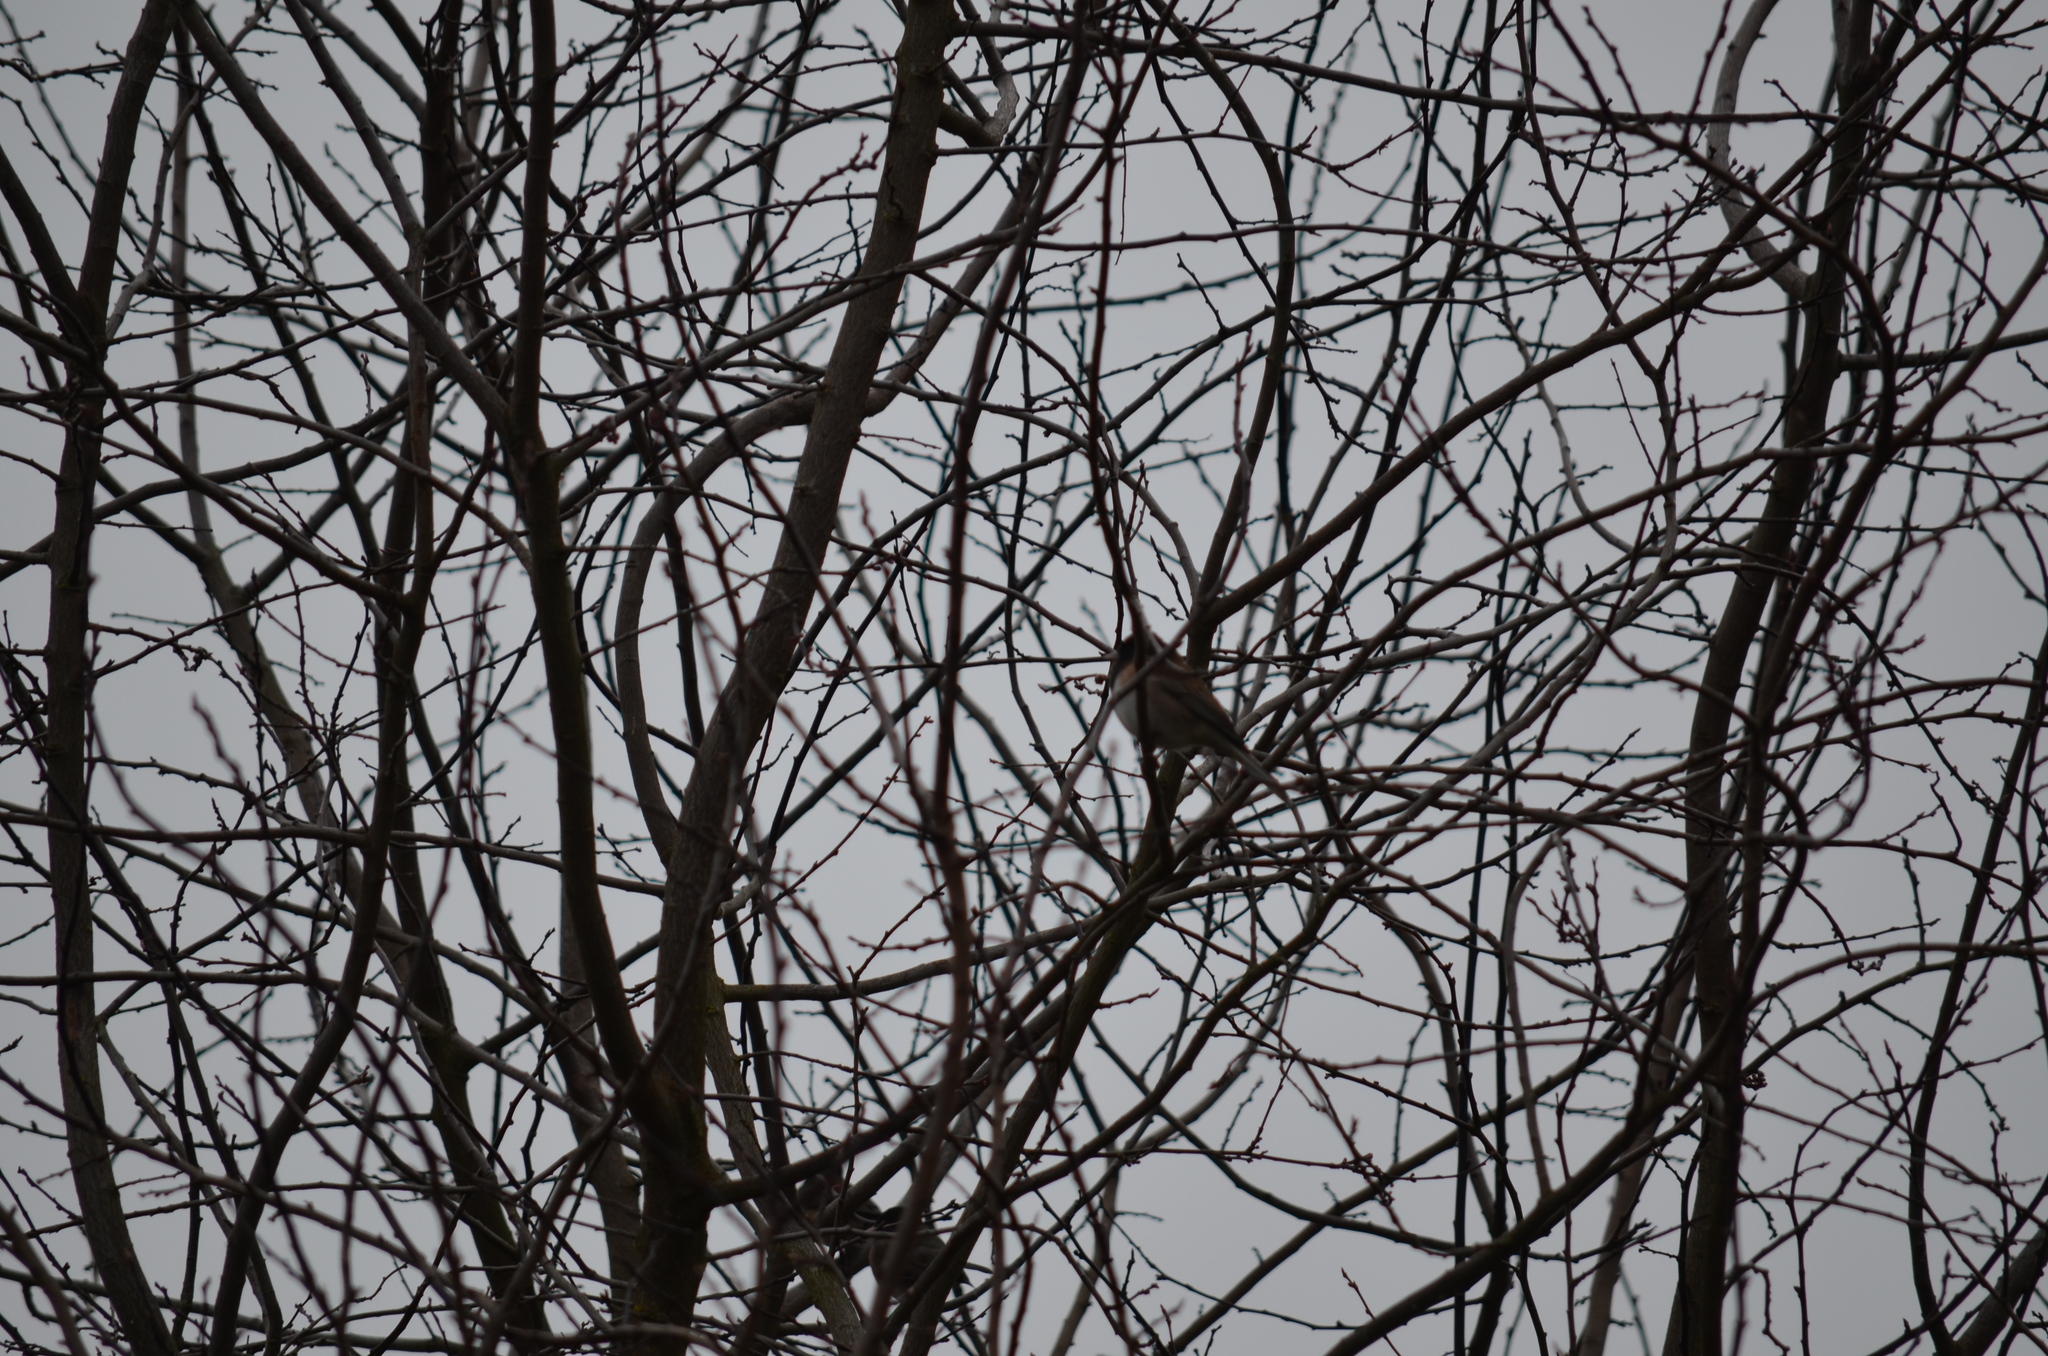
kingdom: Animalia
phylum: Chordata
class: Aves
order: Passeriformes
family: Passerellidae
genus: Junco
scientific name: Junco hyemalis
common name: Dark-eyed junco
